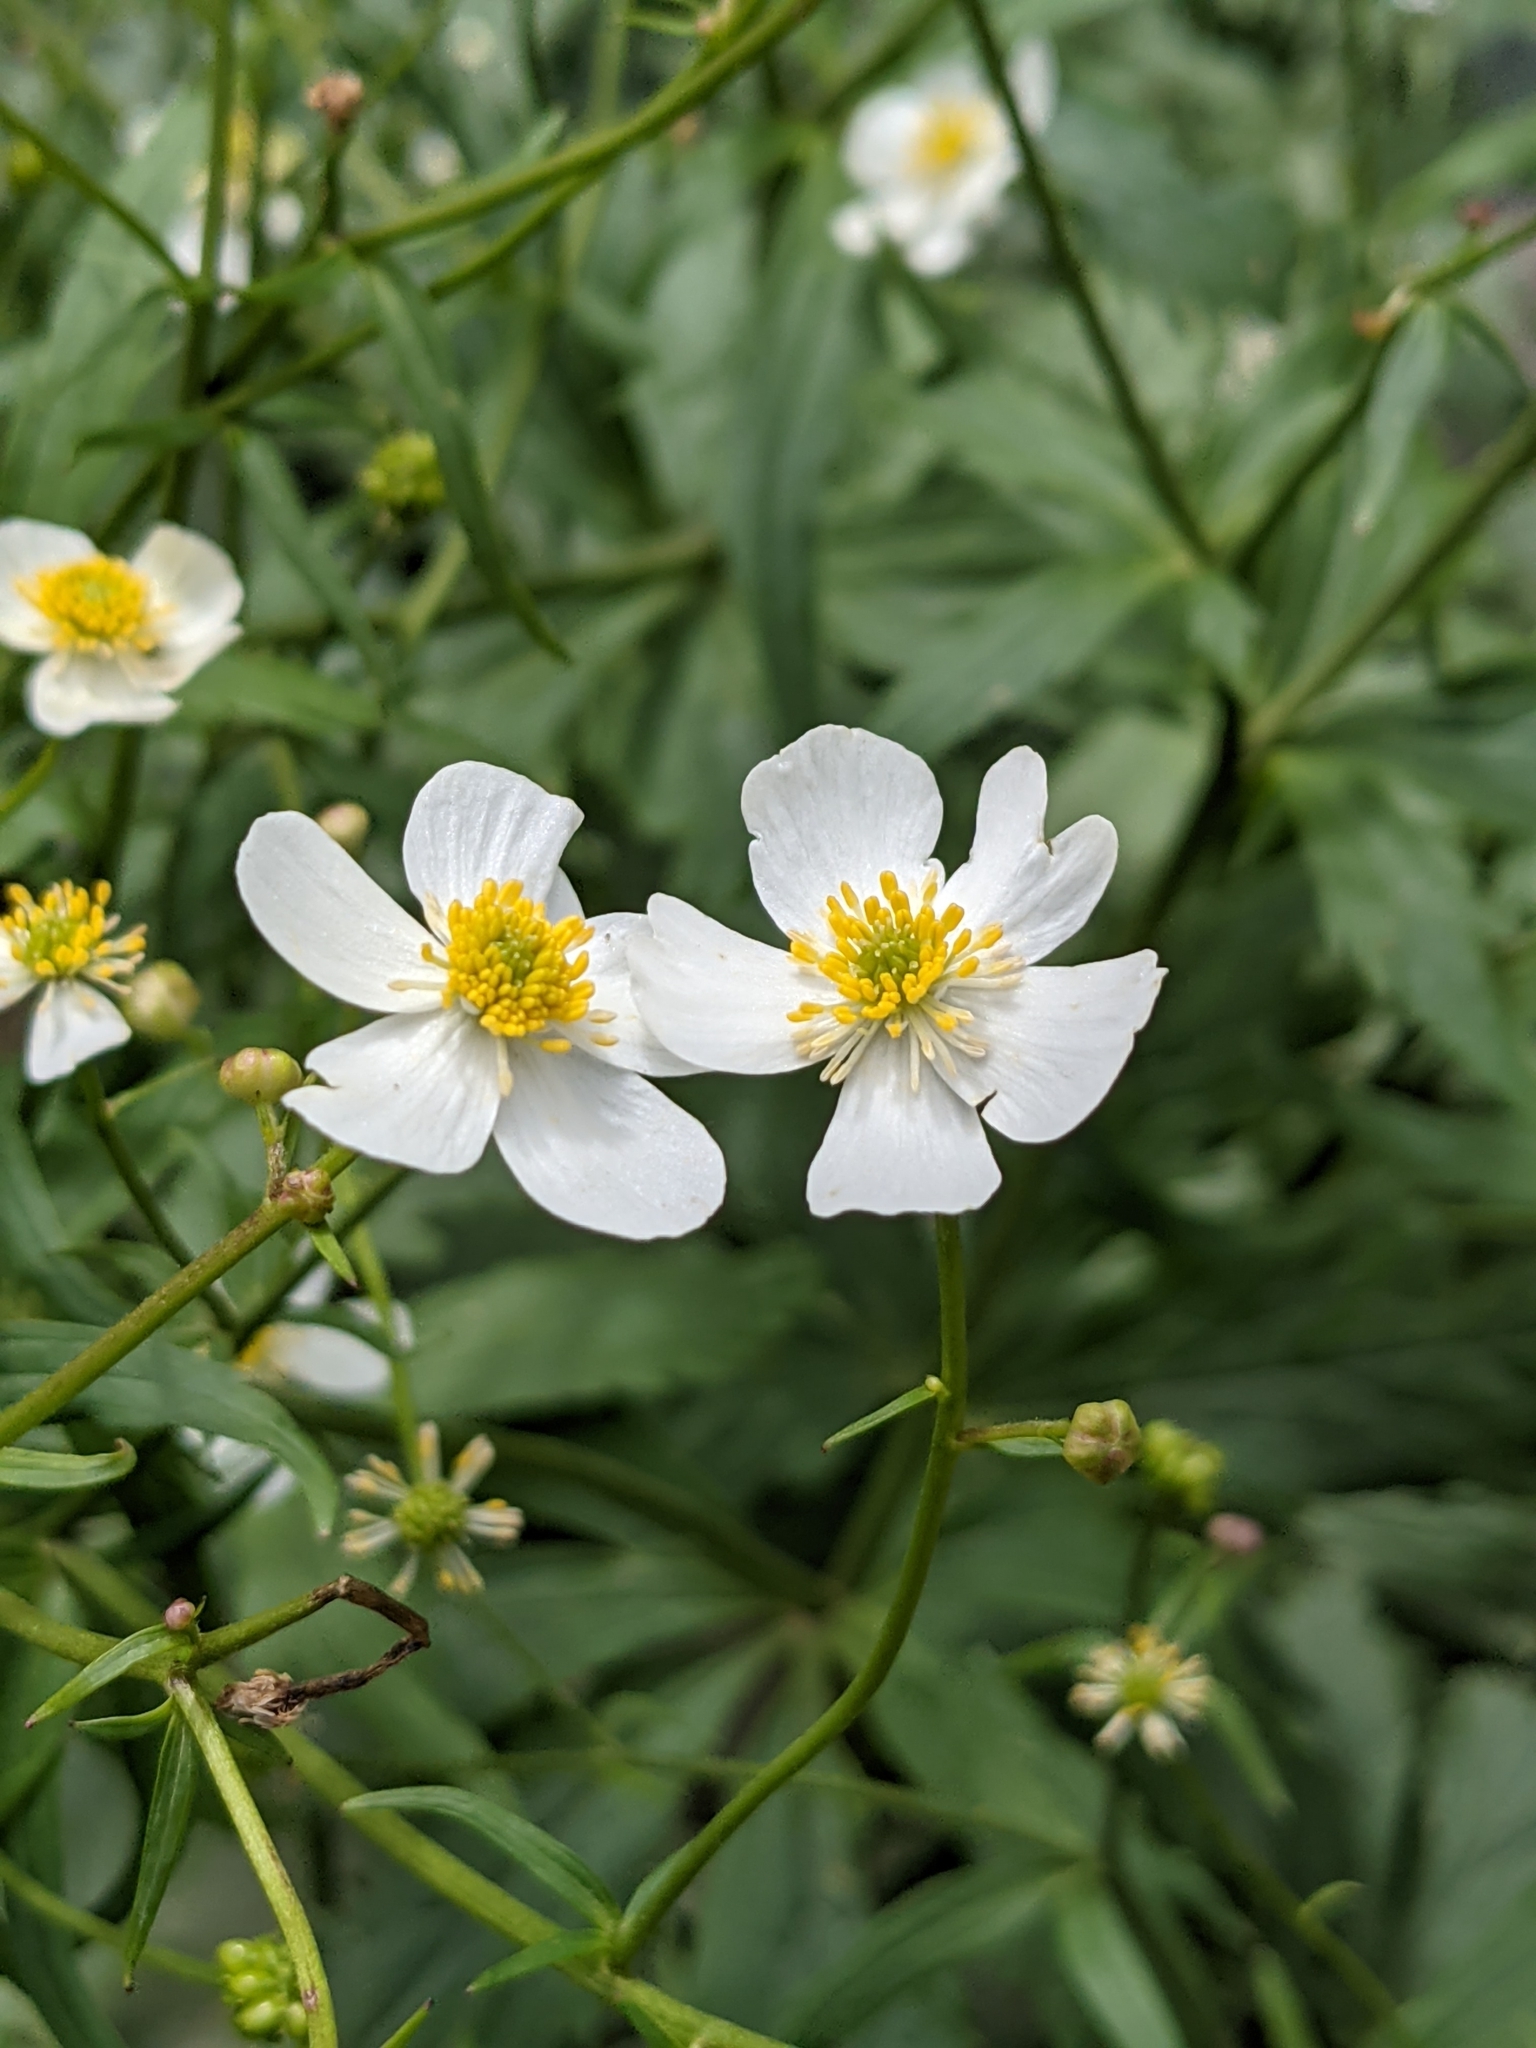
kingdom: Plantae
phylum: Tracheophyta
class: Magnoliopsida
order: Ranunculales
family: Ranunculaceae
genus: Ranunculus
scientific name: Ranunculus aconitifolius
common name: Aconite-leaved buttercup
